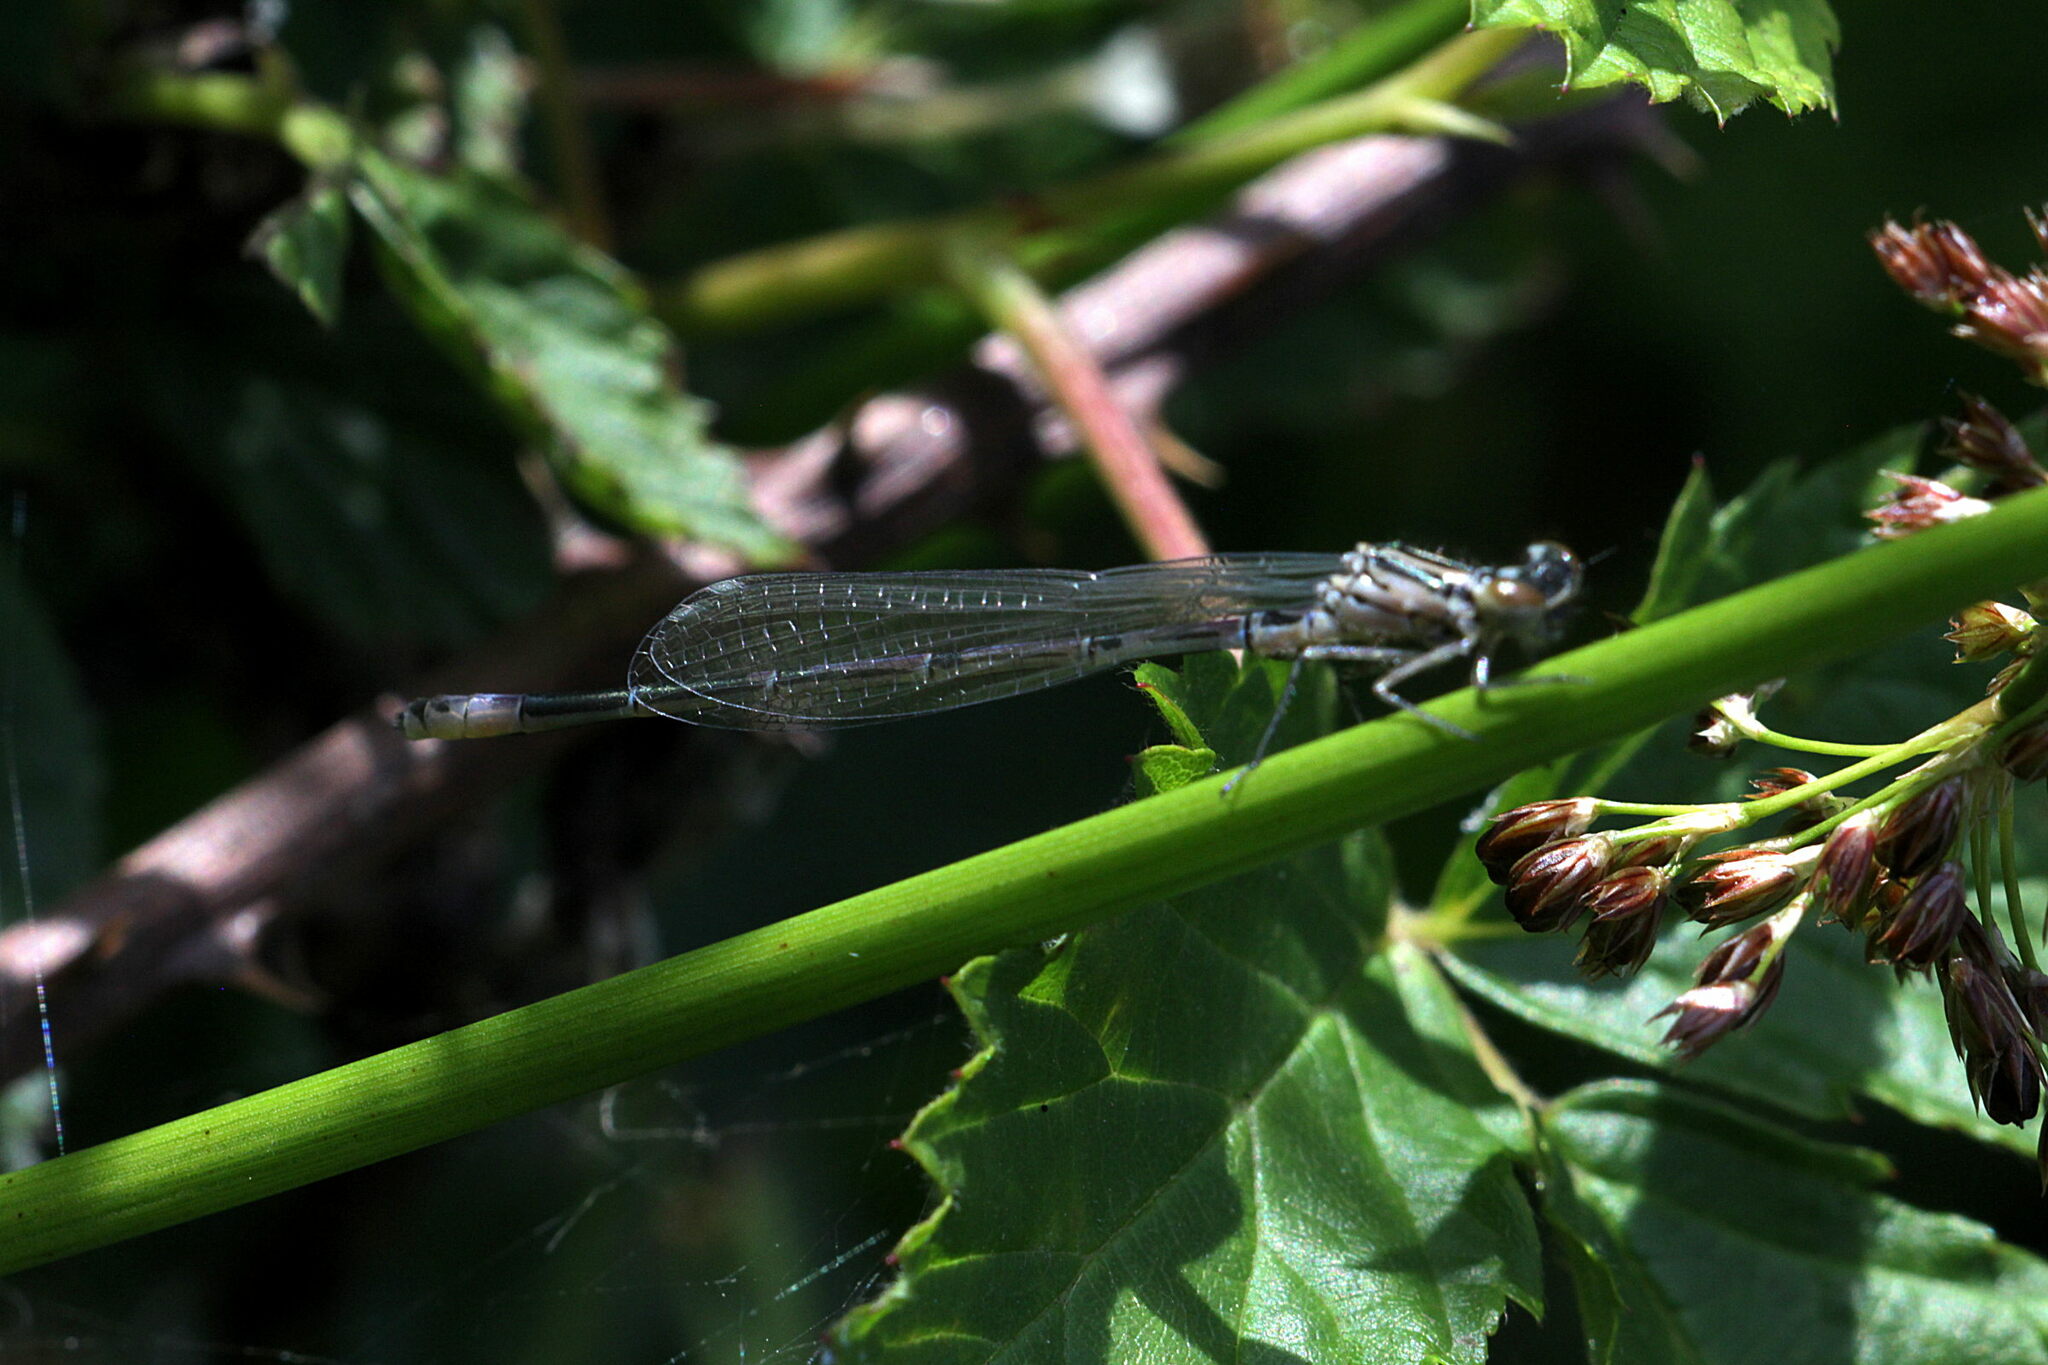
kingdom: Animalia
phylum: Arthropoda
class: Insecta
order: Odonata
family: Coenagrionidae
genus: Coenagrion
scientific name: Coenagrion puella
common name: Azure damselfly
